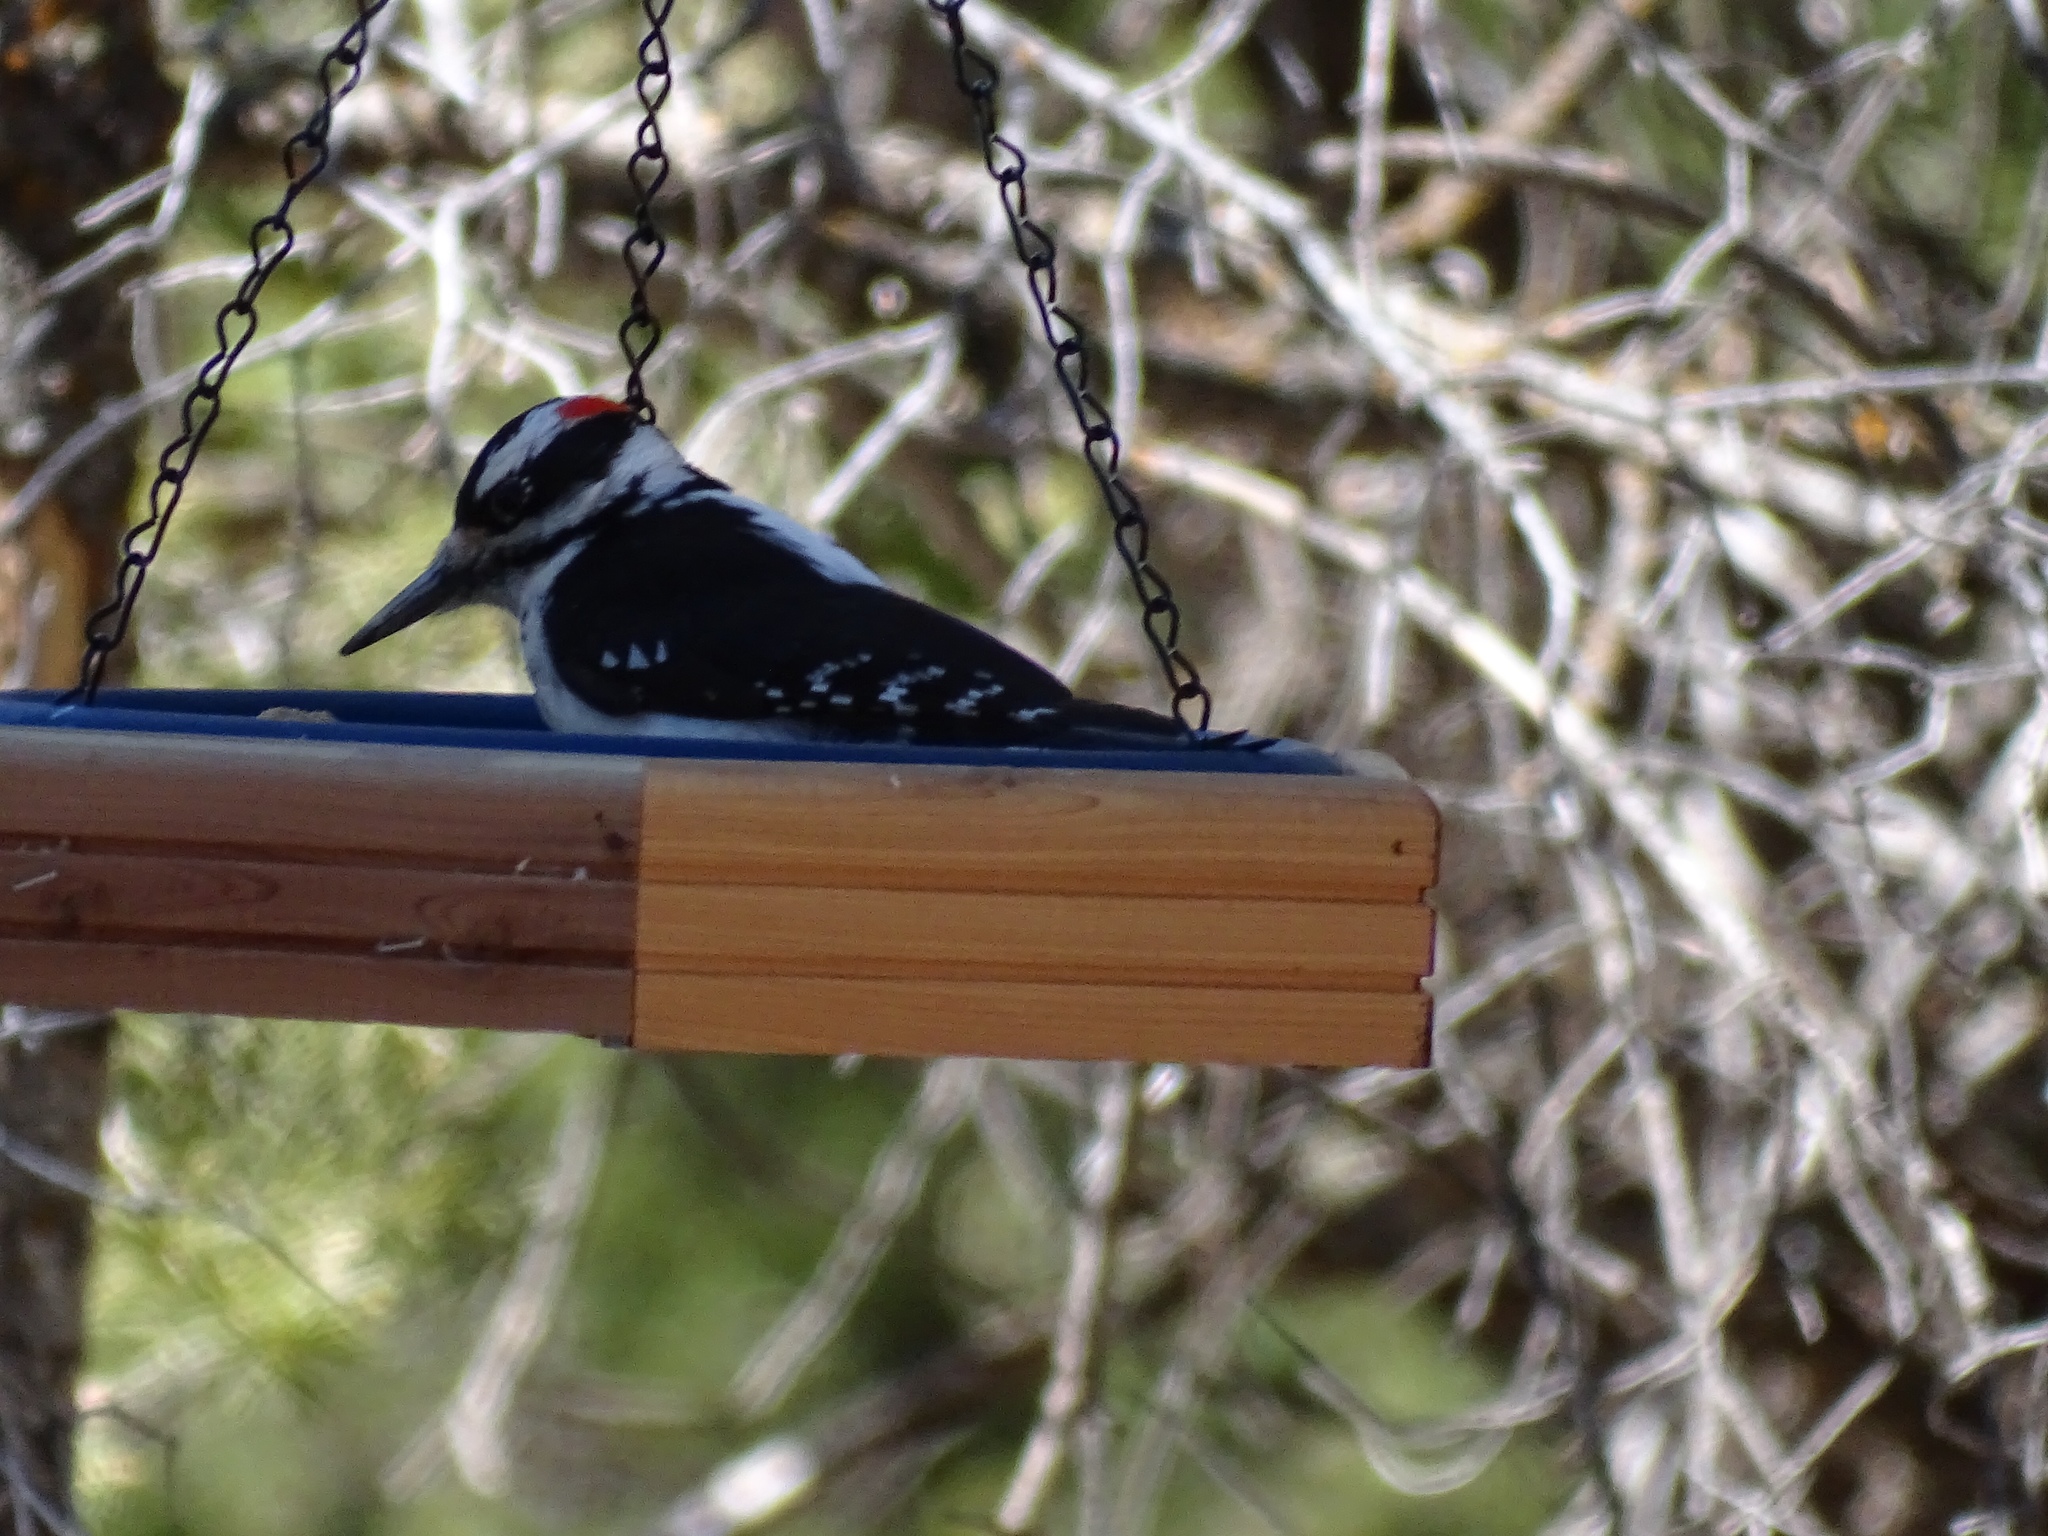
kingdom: Animalia
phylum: Chordata
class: Aves
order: Piciformes
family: Picidae
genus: Leuconotopicus
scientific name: Leuconotopicus villosus
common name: Hairy woodpecker
